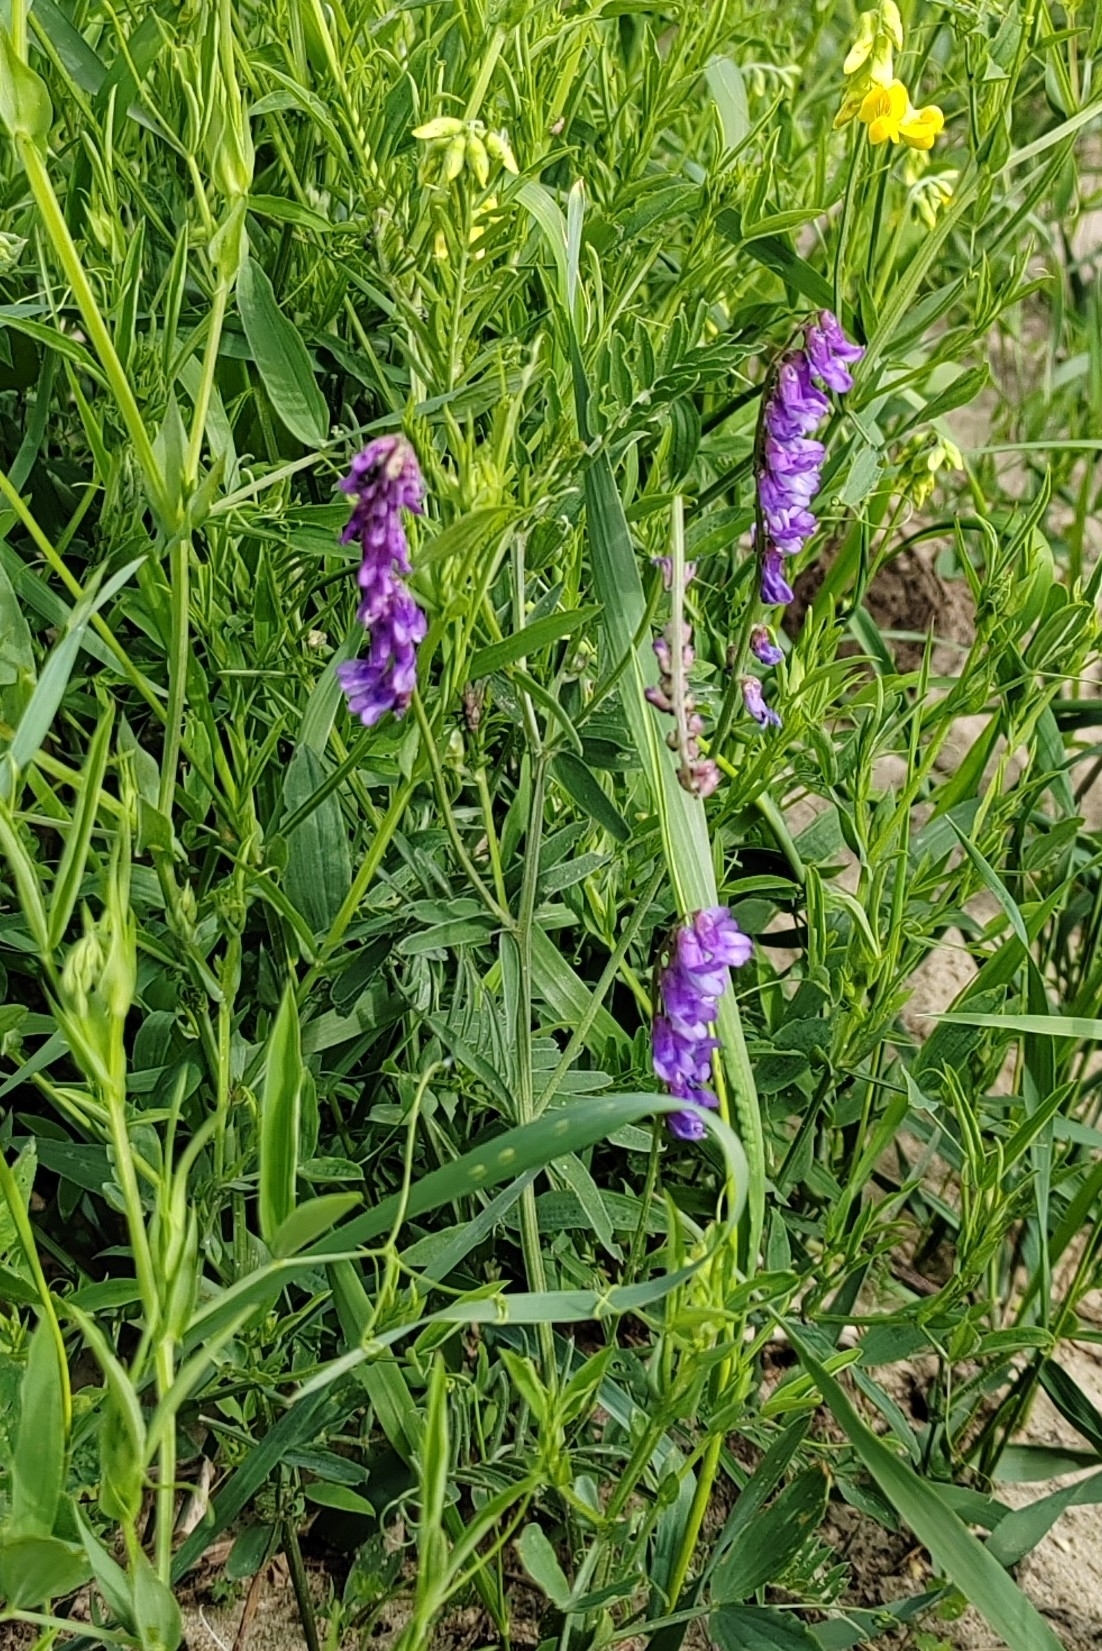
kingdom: Plantae
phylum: Tracheophyta
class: Magnoliopsida
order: Fabales
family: Fabaceae
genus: Vicia
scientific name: Vicia cracca
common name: Bird vetch
